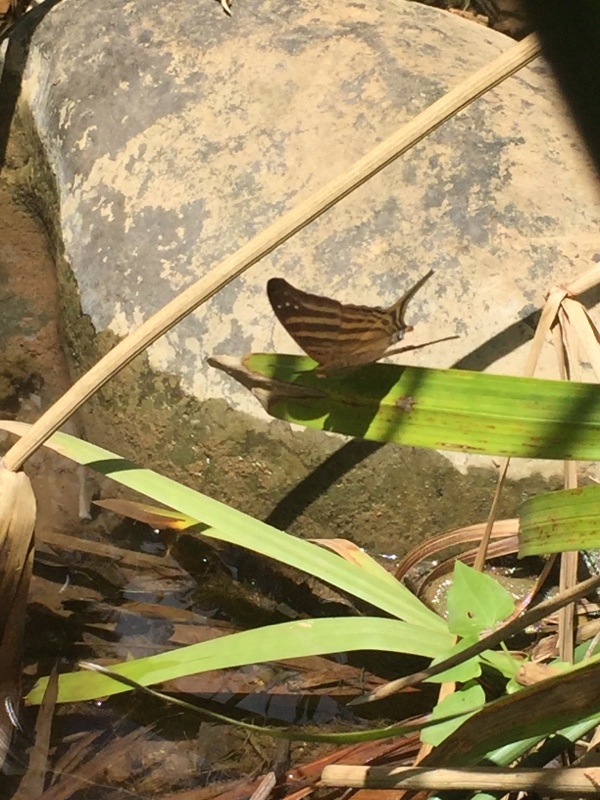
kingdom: Animalia
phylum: Arthropoda
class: Insecta
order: Lepidoptera
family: Nymphalidae
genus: Marpesia
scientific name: Marpesia chiron
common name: Many-banded daggerwing
